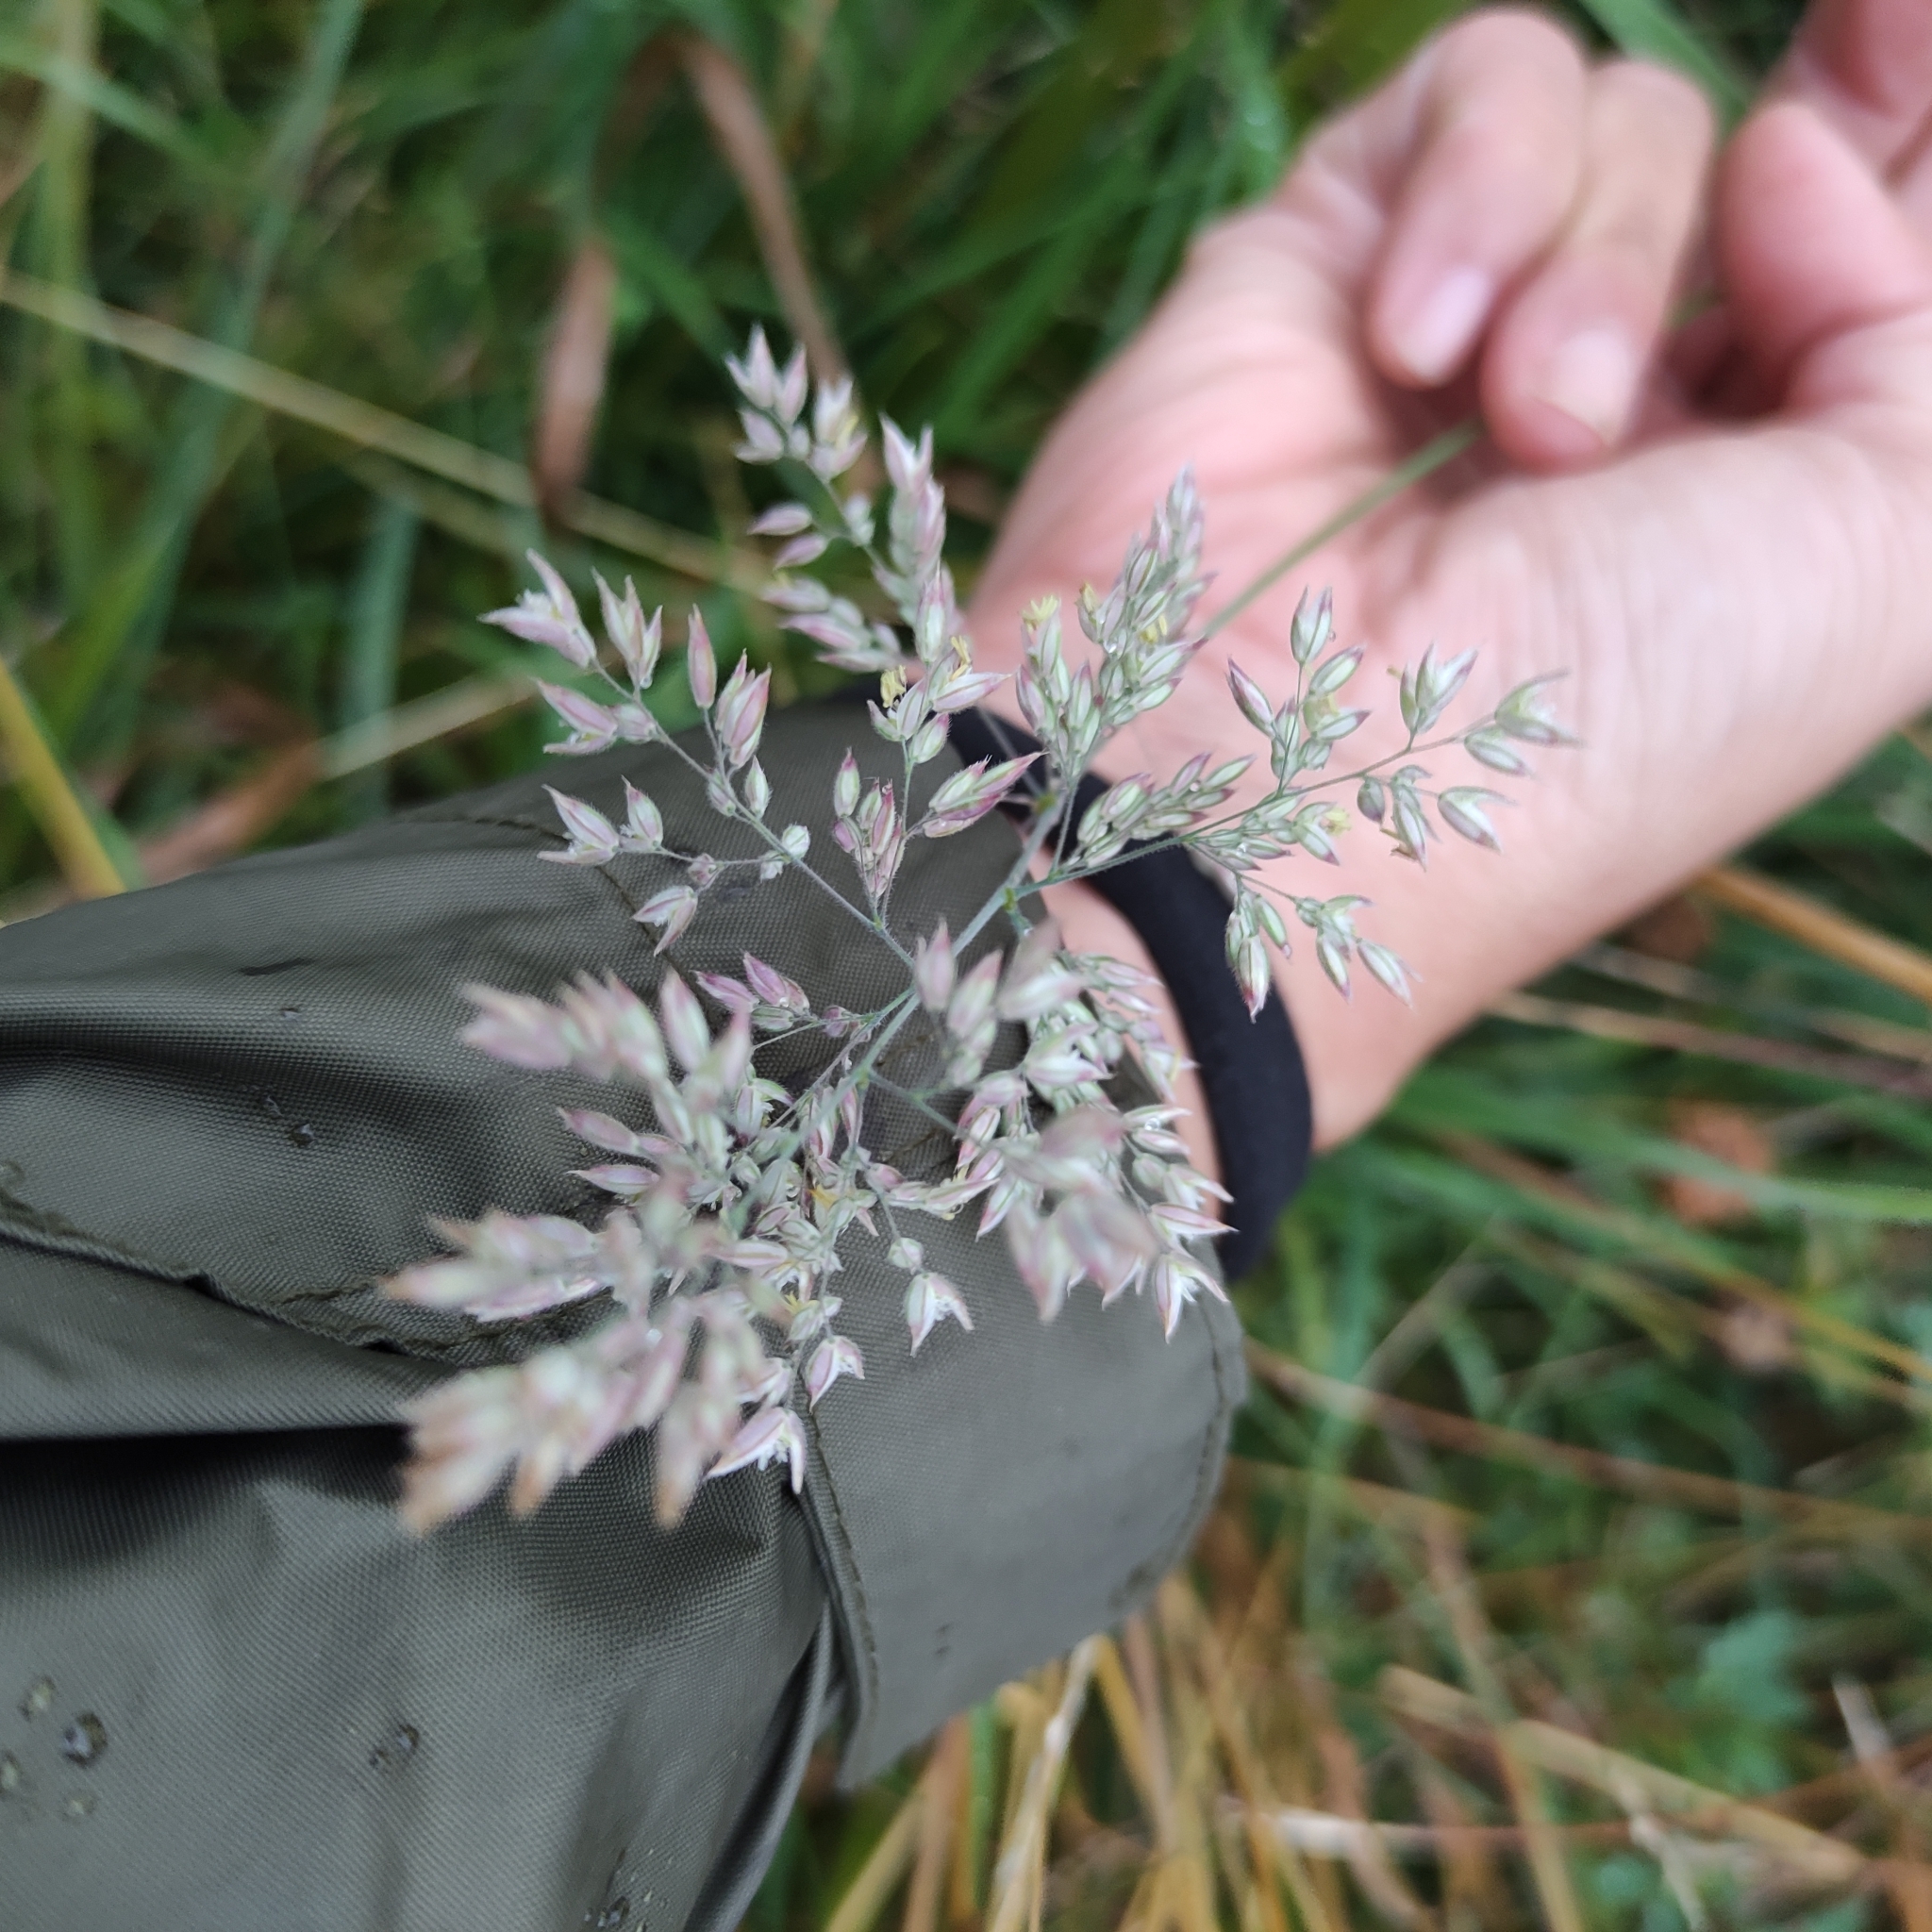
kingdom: Plantae
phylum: Tracheophyta
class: Liliopsida
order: Poales
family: Poaceae
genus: Holcus
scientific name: Holcus lanatus
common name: Yorkshire-fog
